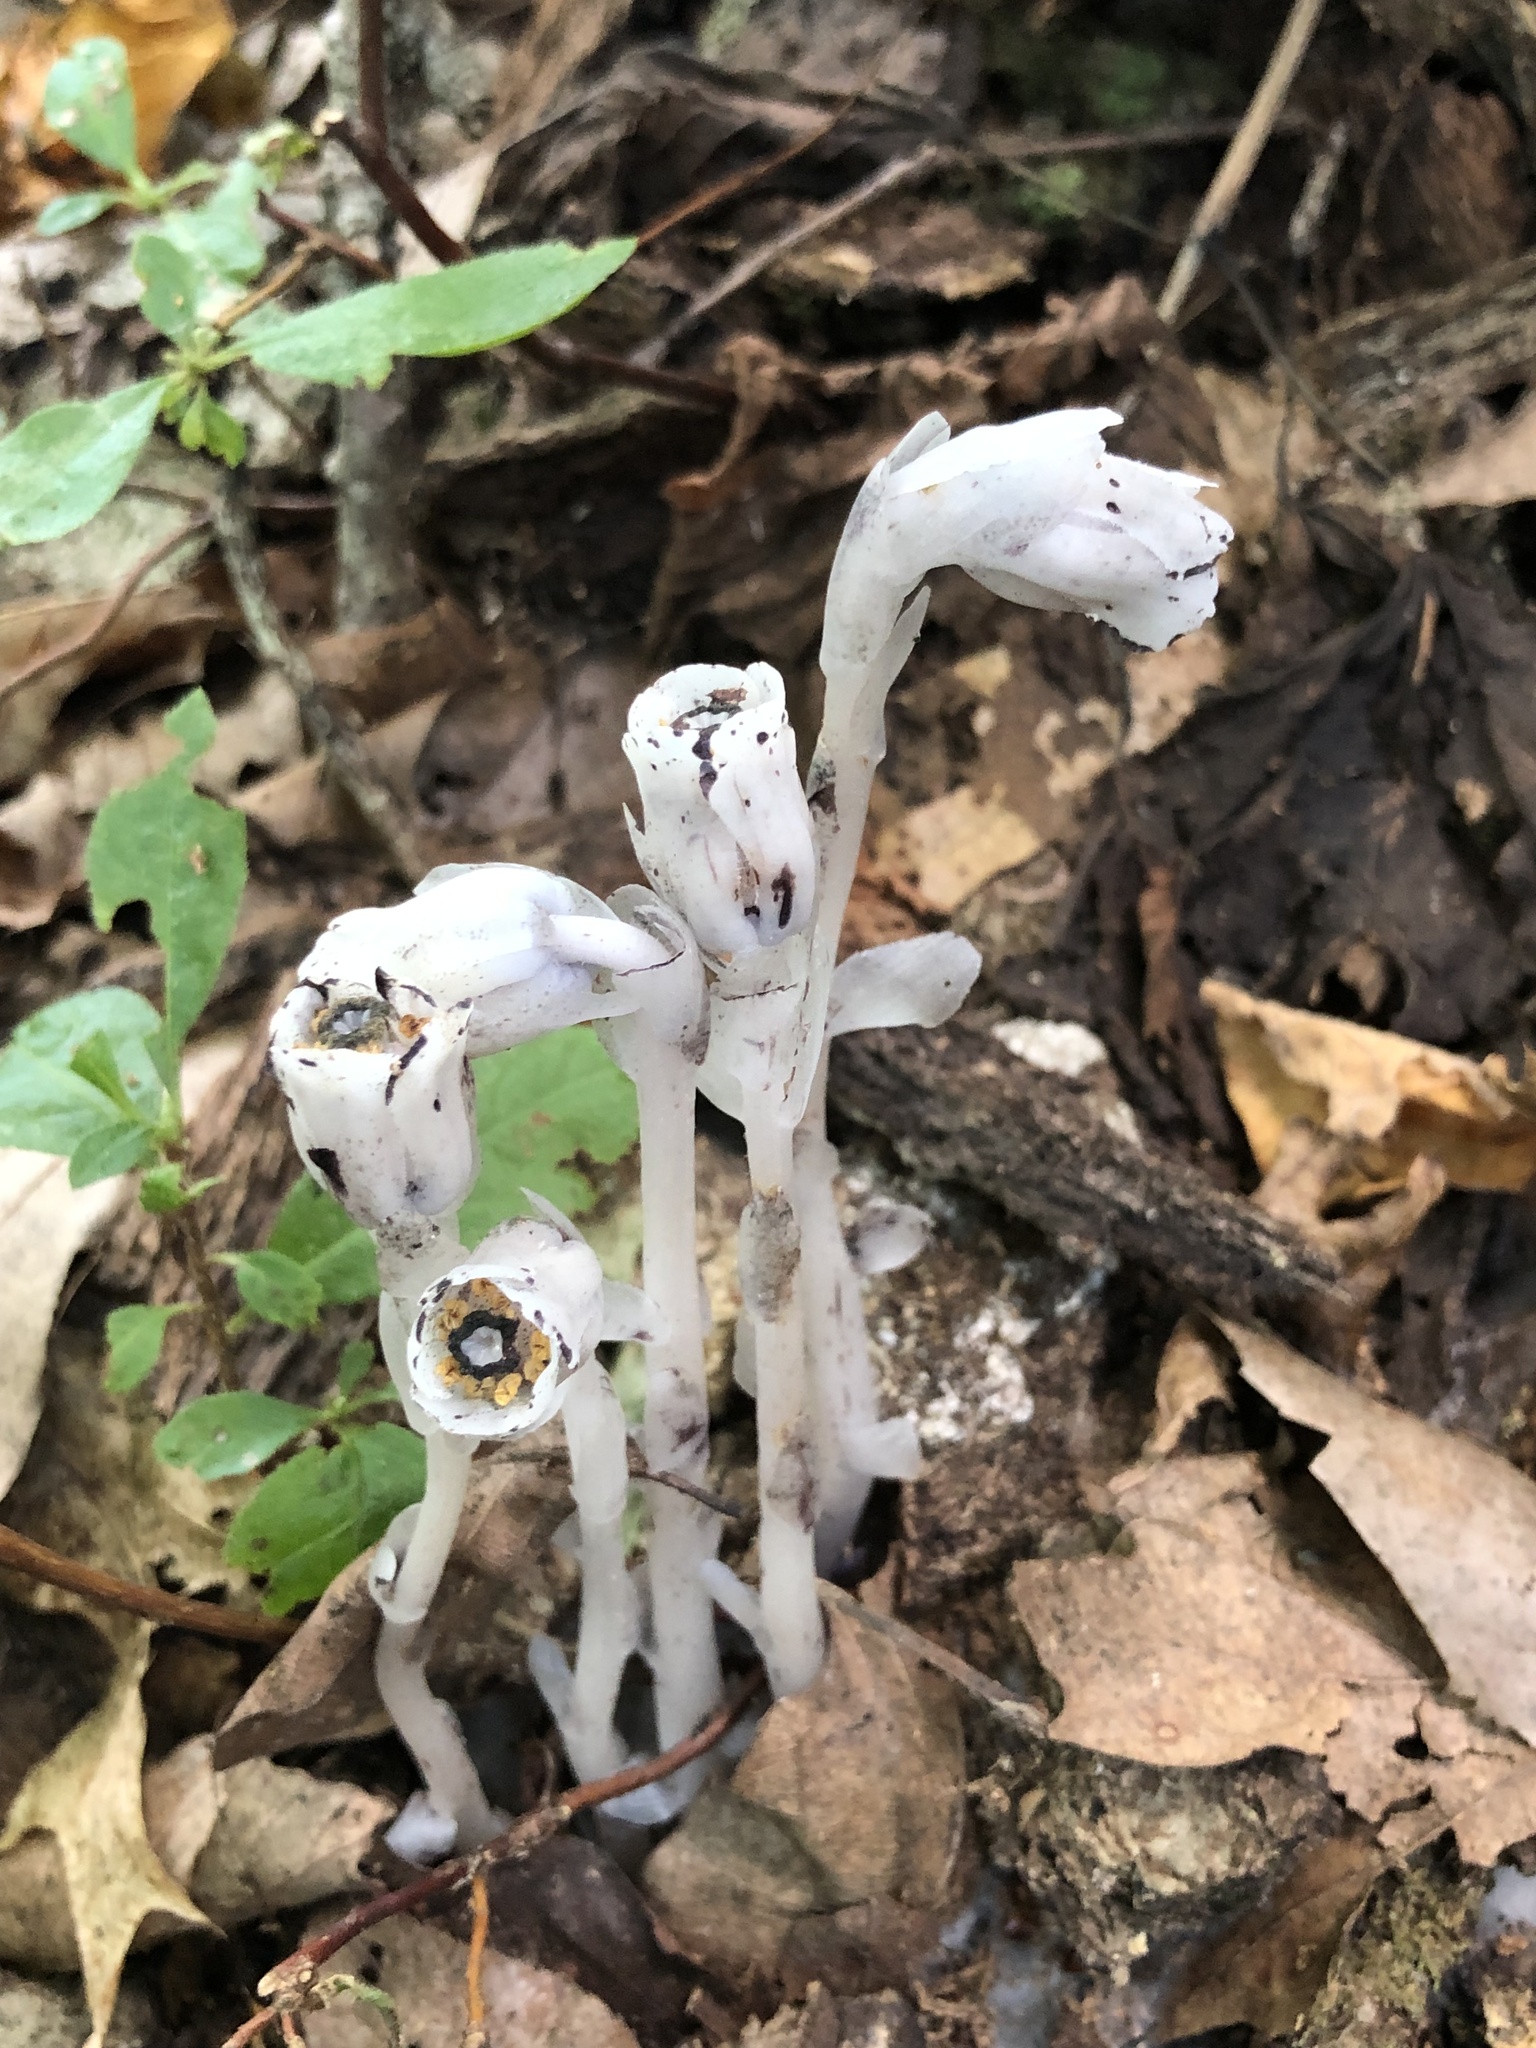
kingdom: Plantae
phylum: Tracheophyta
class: Magnoliopsida
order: Ericales
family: Ericaceae
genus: Monotropa
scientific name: Monotropa uniflora
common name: Convulsion root
